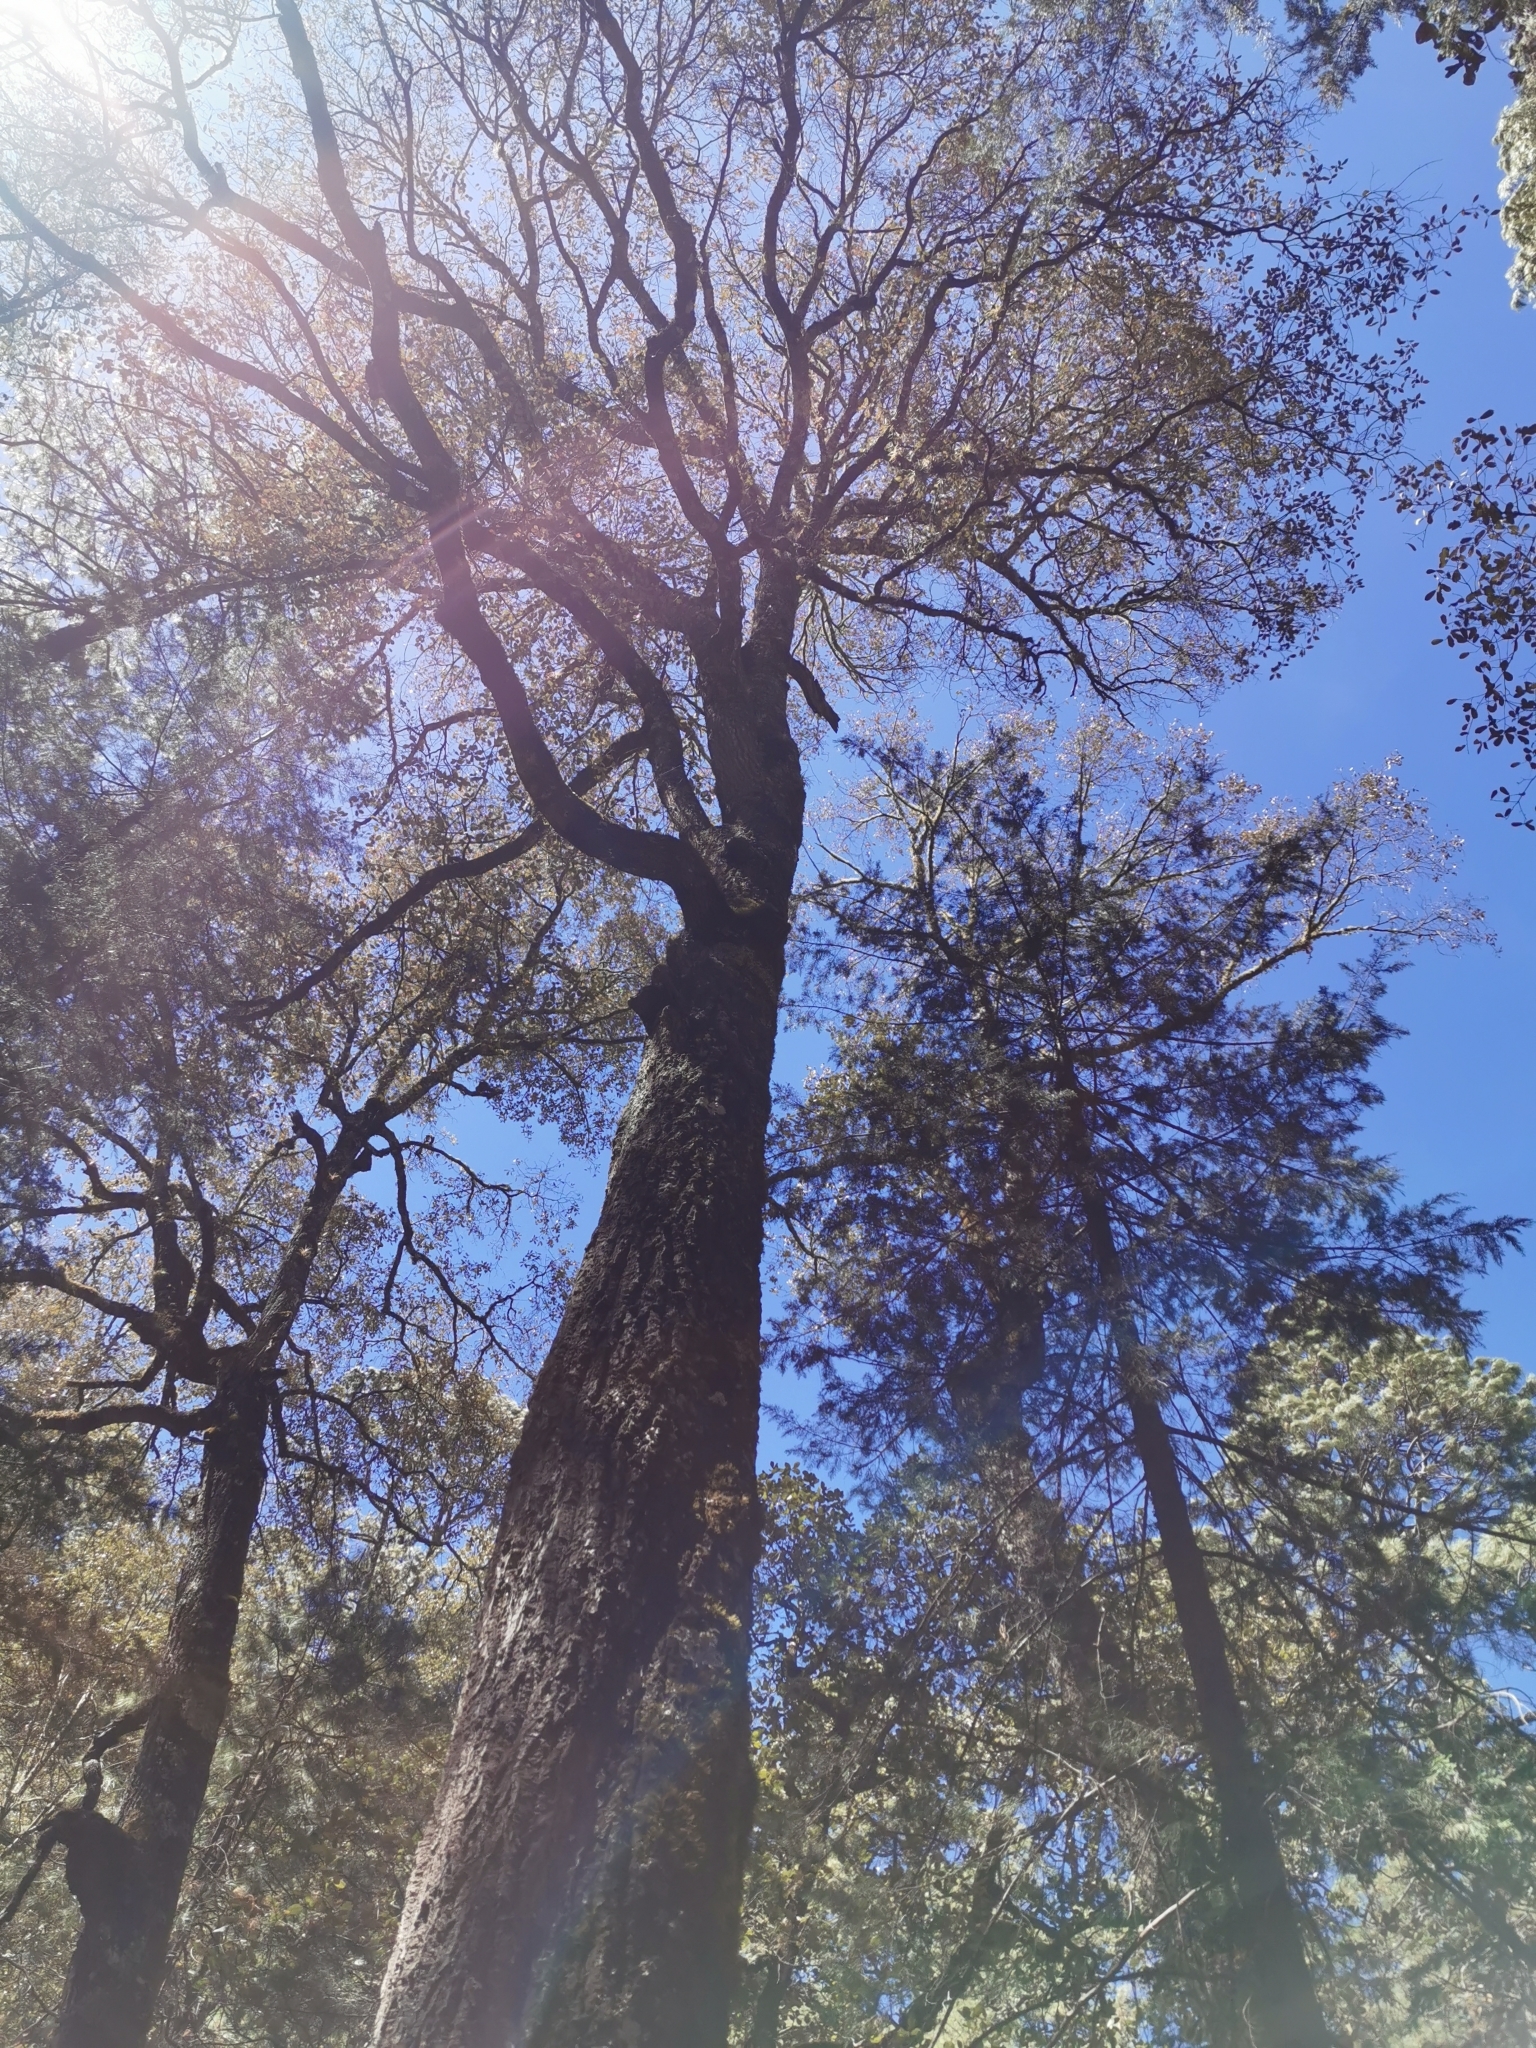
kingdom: Plantae
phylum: Tracheophyta
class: Magnoliopsida
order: Fagales
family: Fagaceae
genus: Quercus
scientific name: Quercus sideroxyla
